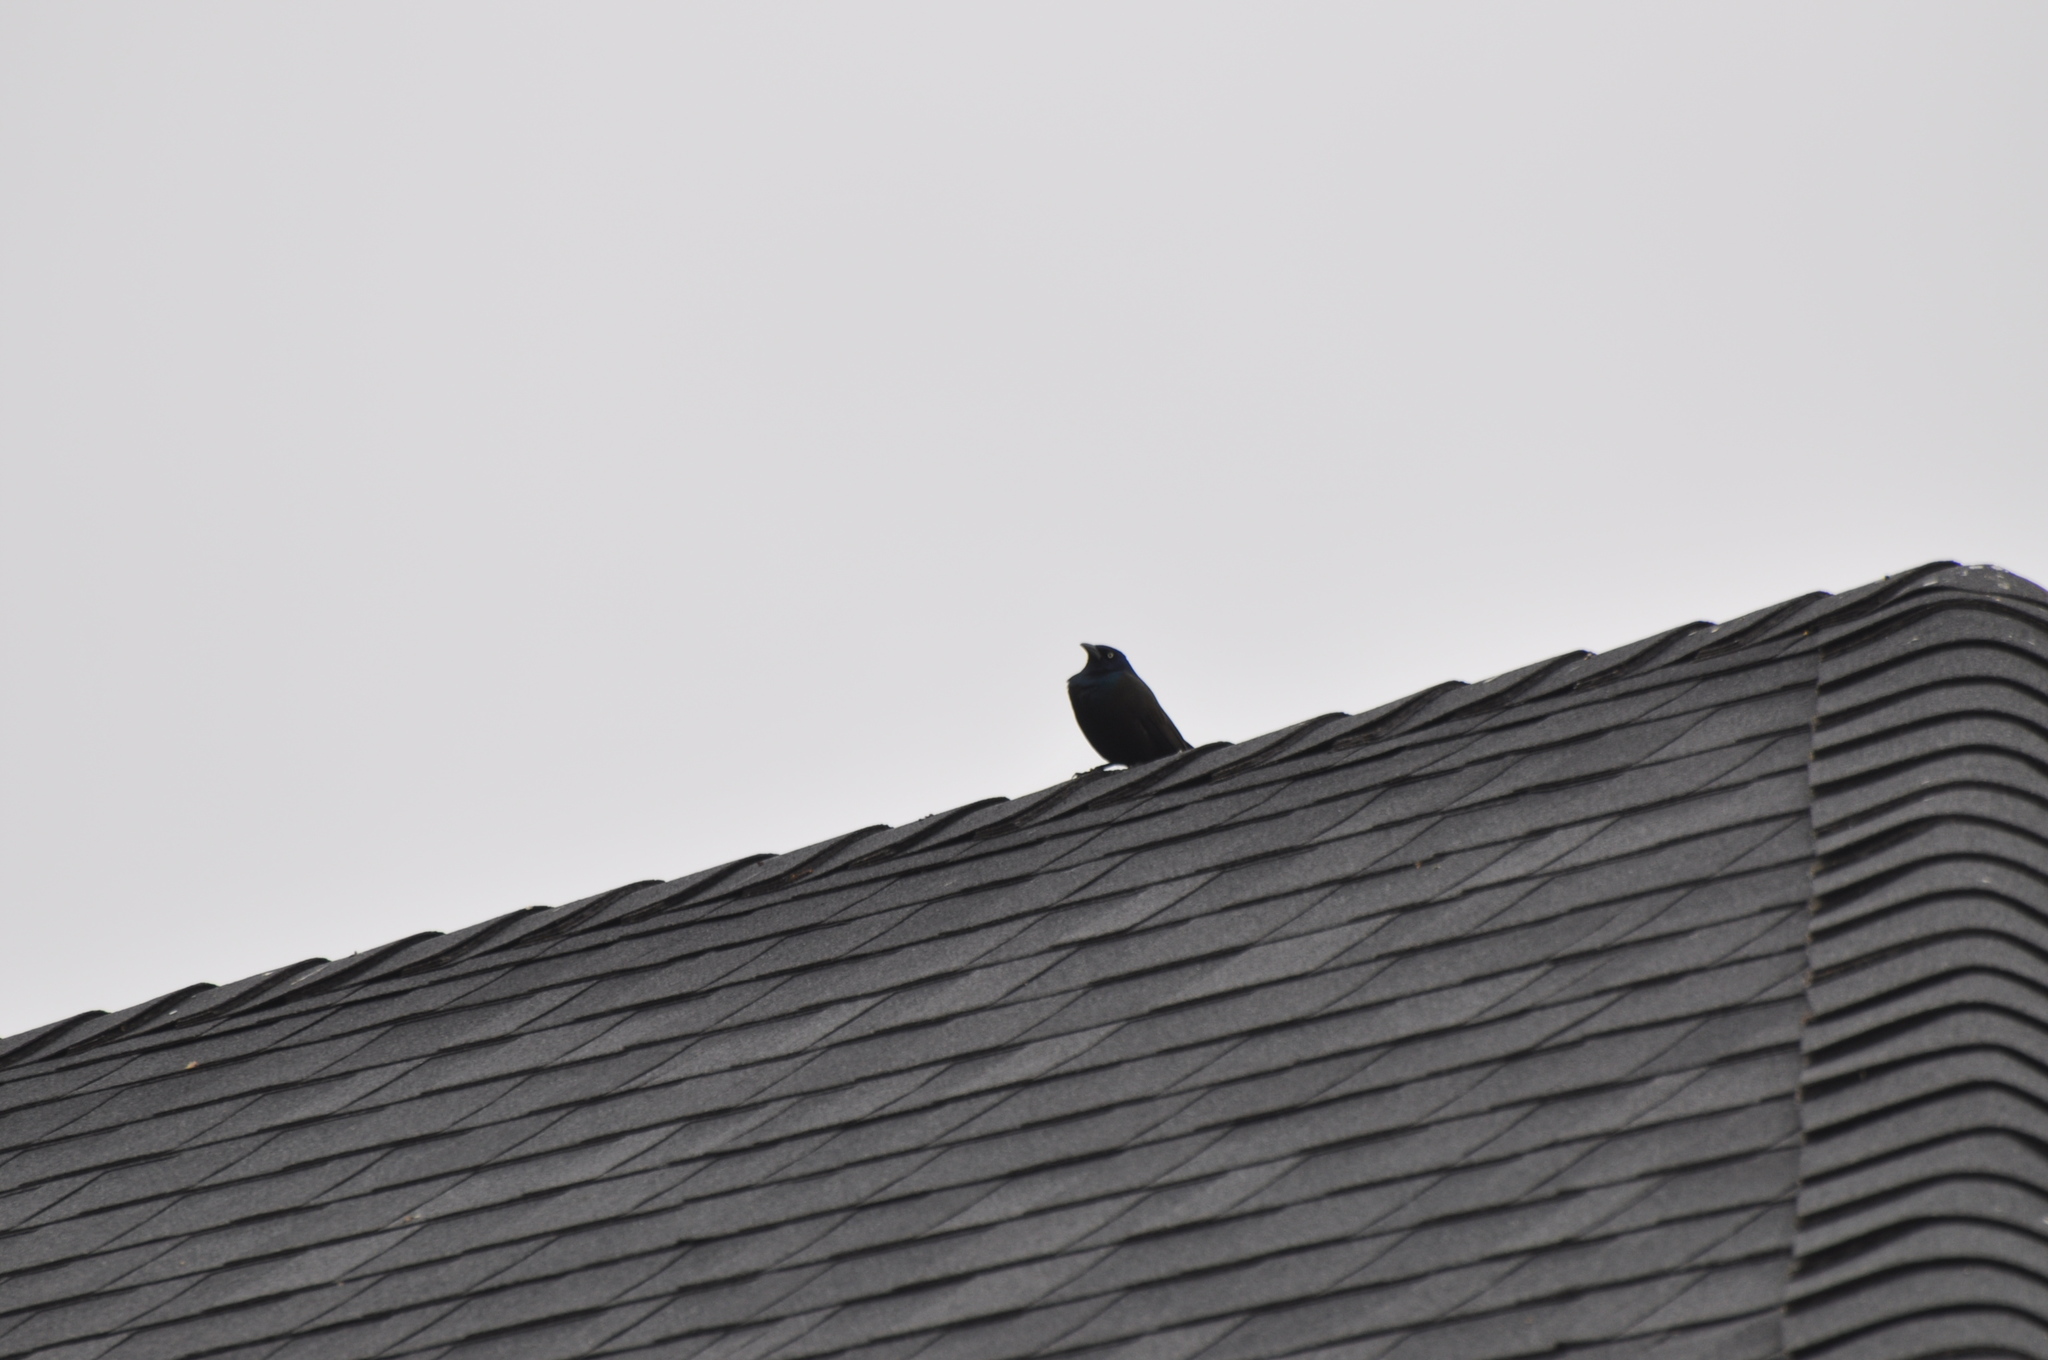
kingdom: Animalia
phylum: Chordata
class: Aves
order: Passeriformes
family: Icteridae
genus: Quiscalus
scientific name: Quiscalus quiscula
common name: Common grackle
